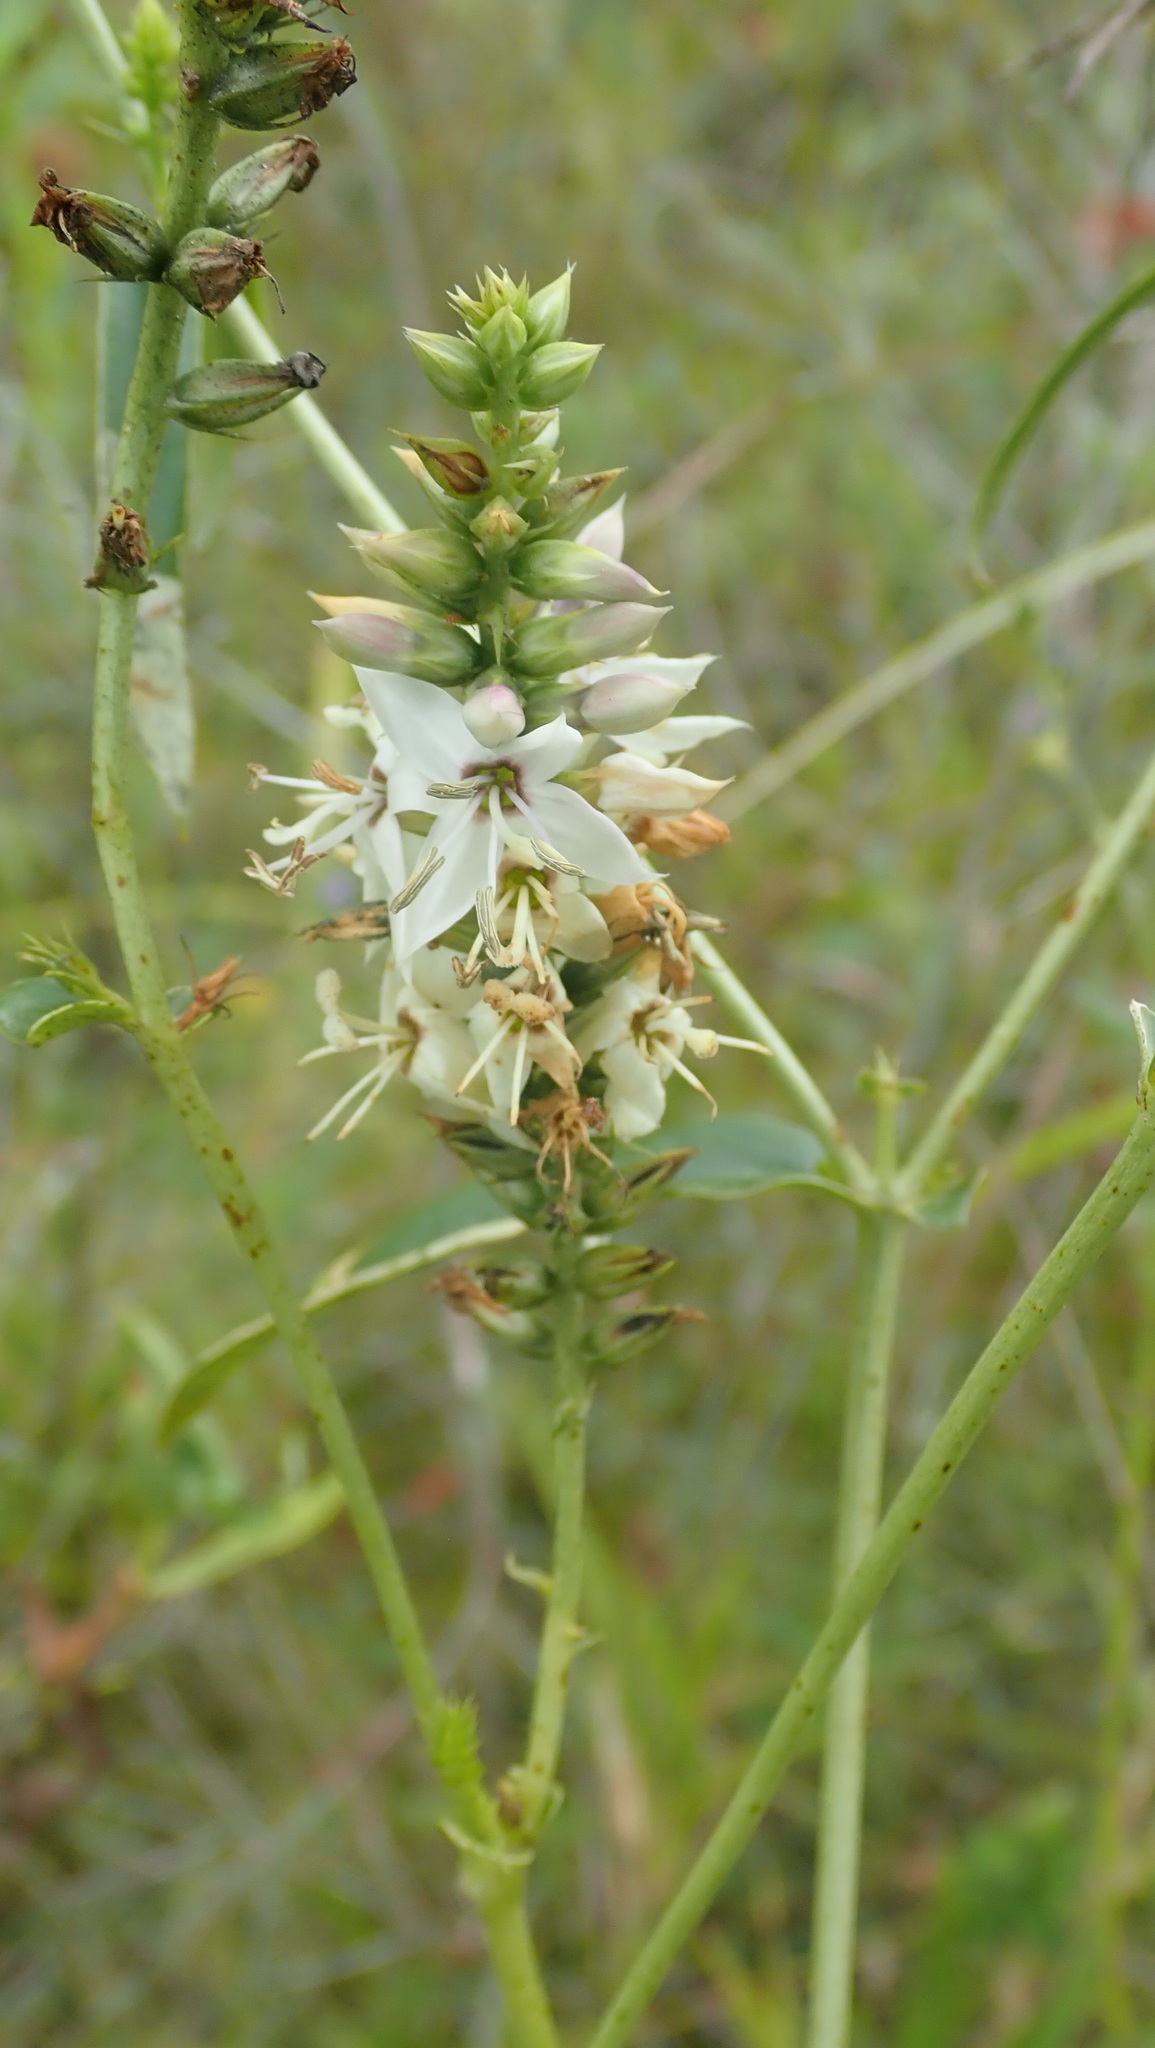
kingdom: Plantae
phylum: Tracheophyta
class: Magnoliopsida
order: Gentianales
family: Gentianaceae
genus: Coutoubea
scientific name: Coutoubea spicata
